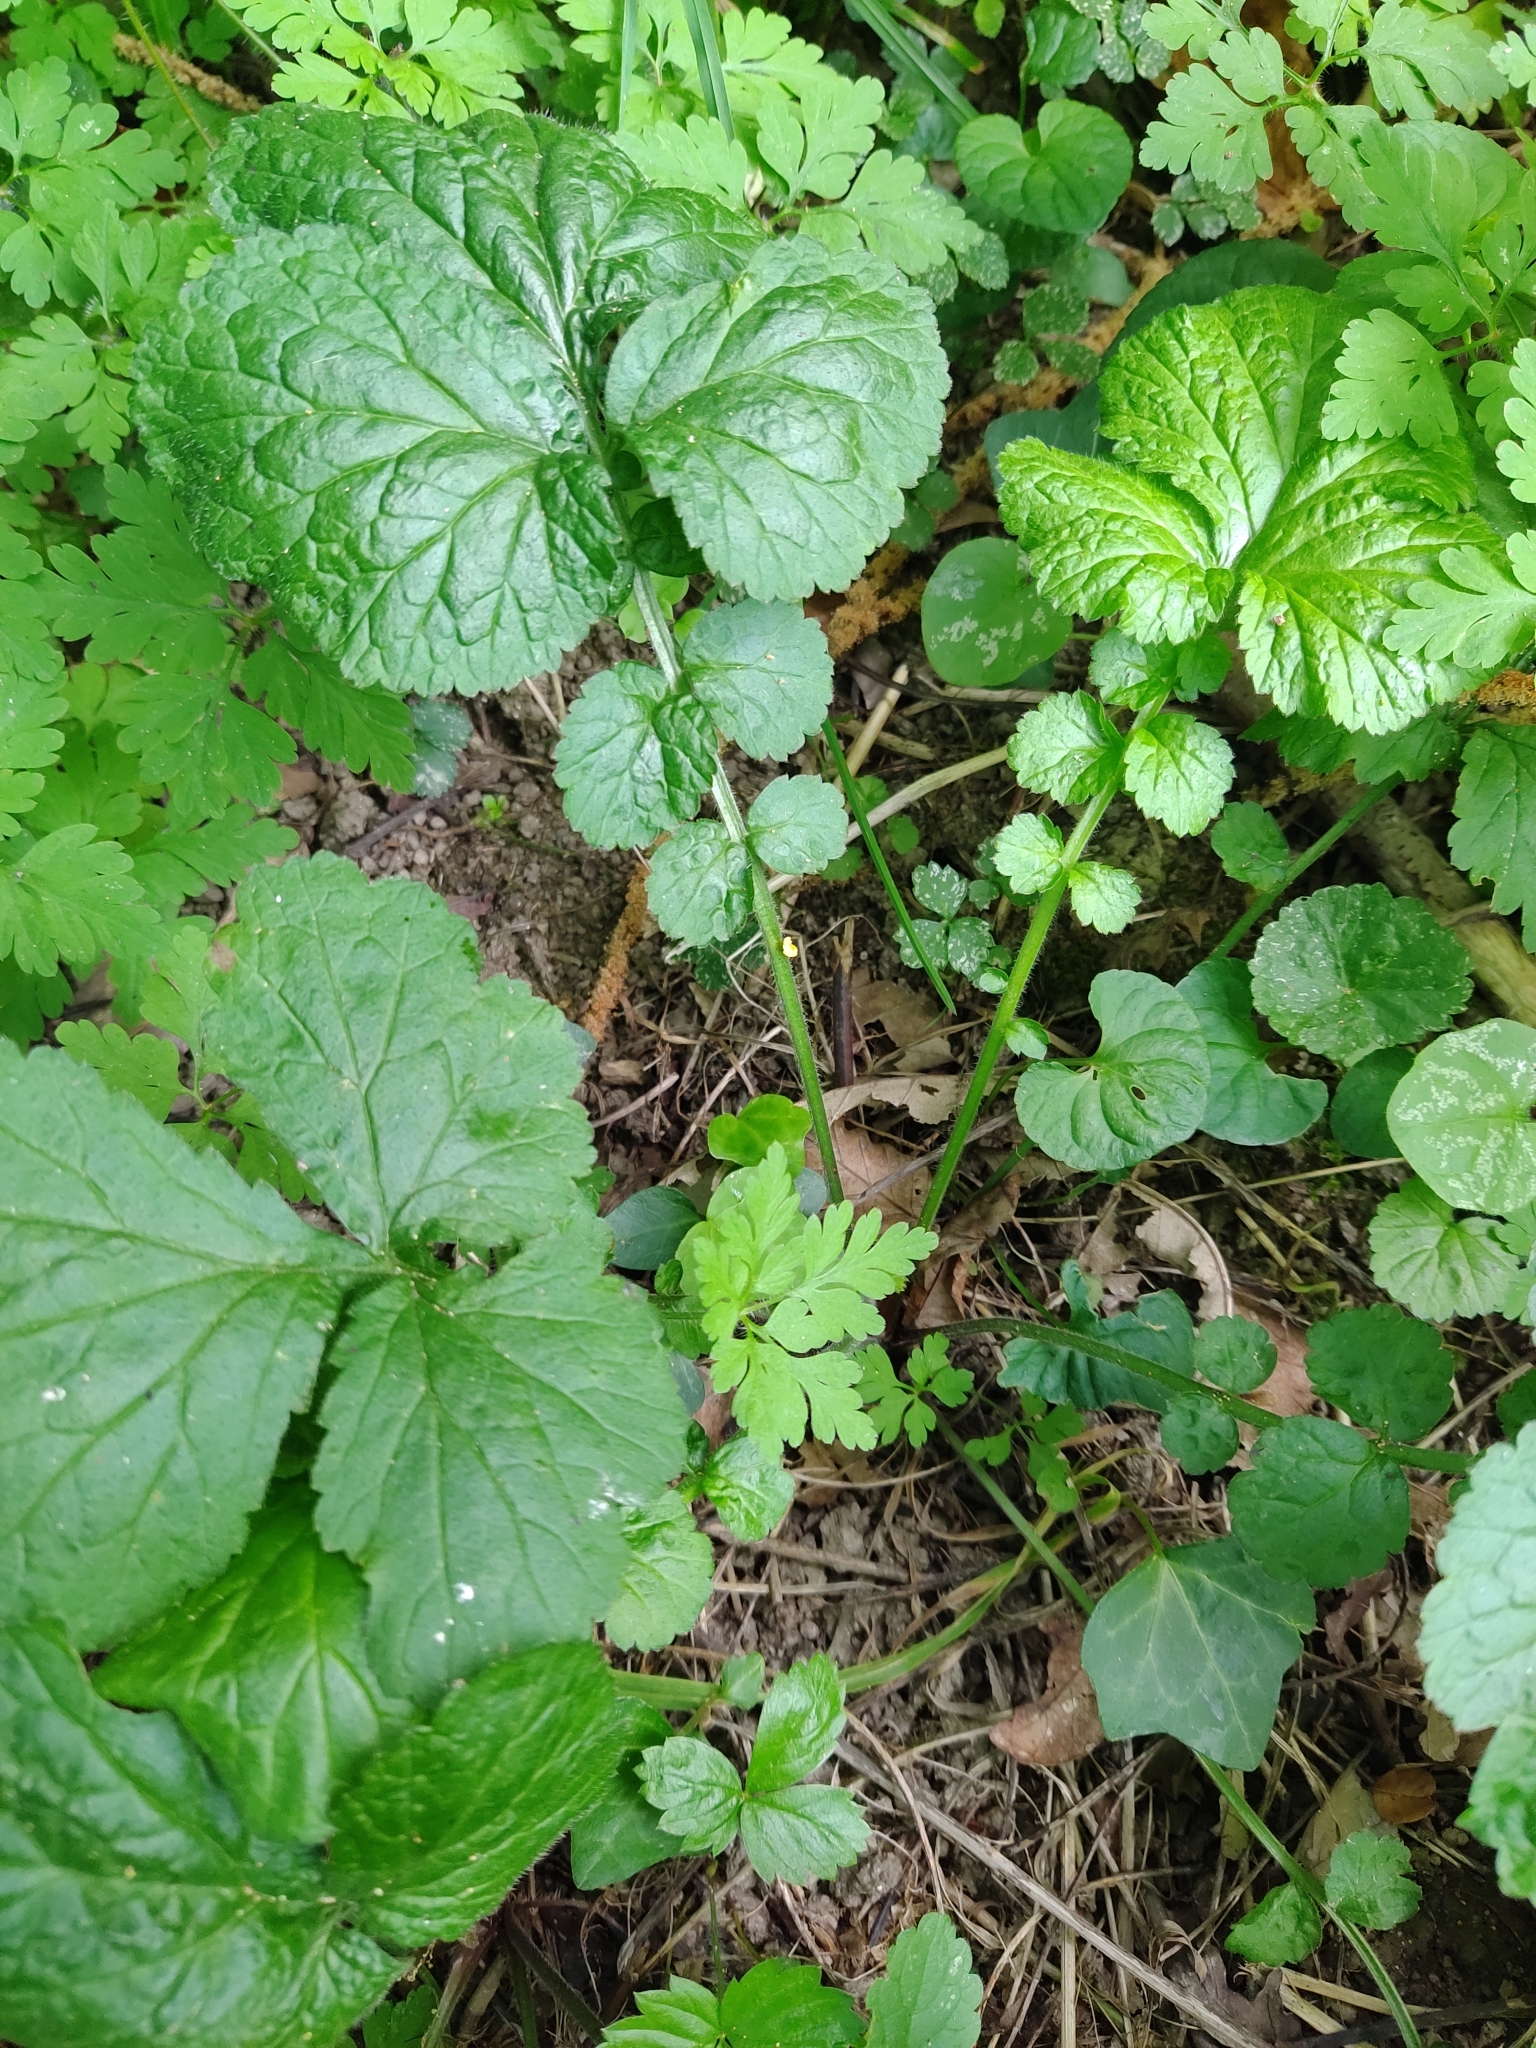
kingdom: Plantae
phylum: Tracheophyta
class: Magnoliopsida
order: Rosales
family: Rosaceae
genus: Geum
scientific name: Geum urbanum
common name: Wood avens
